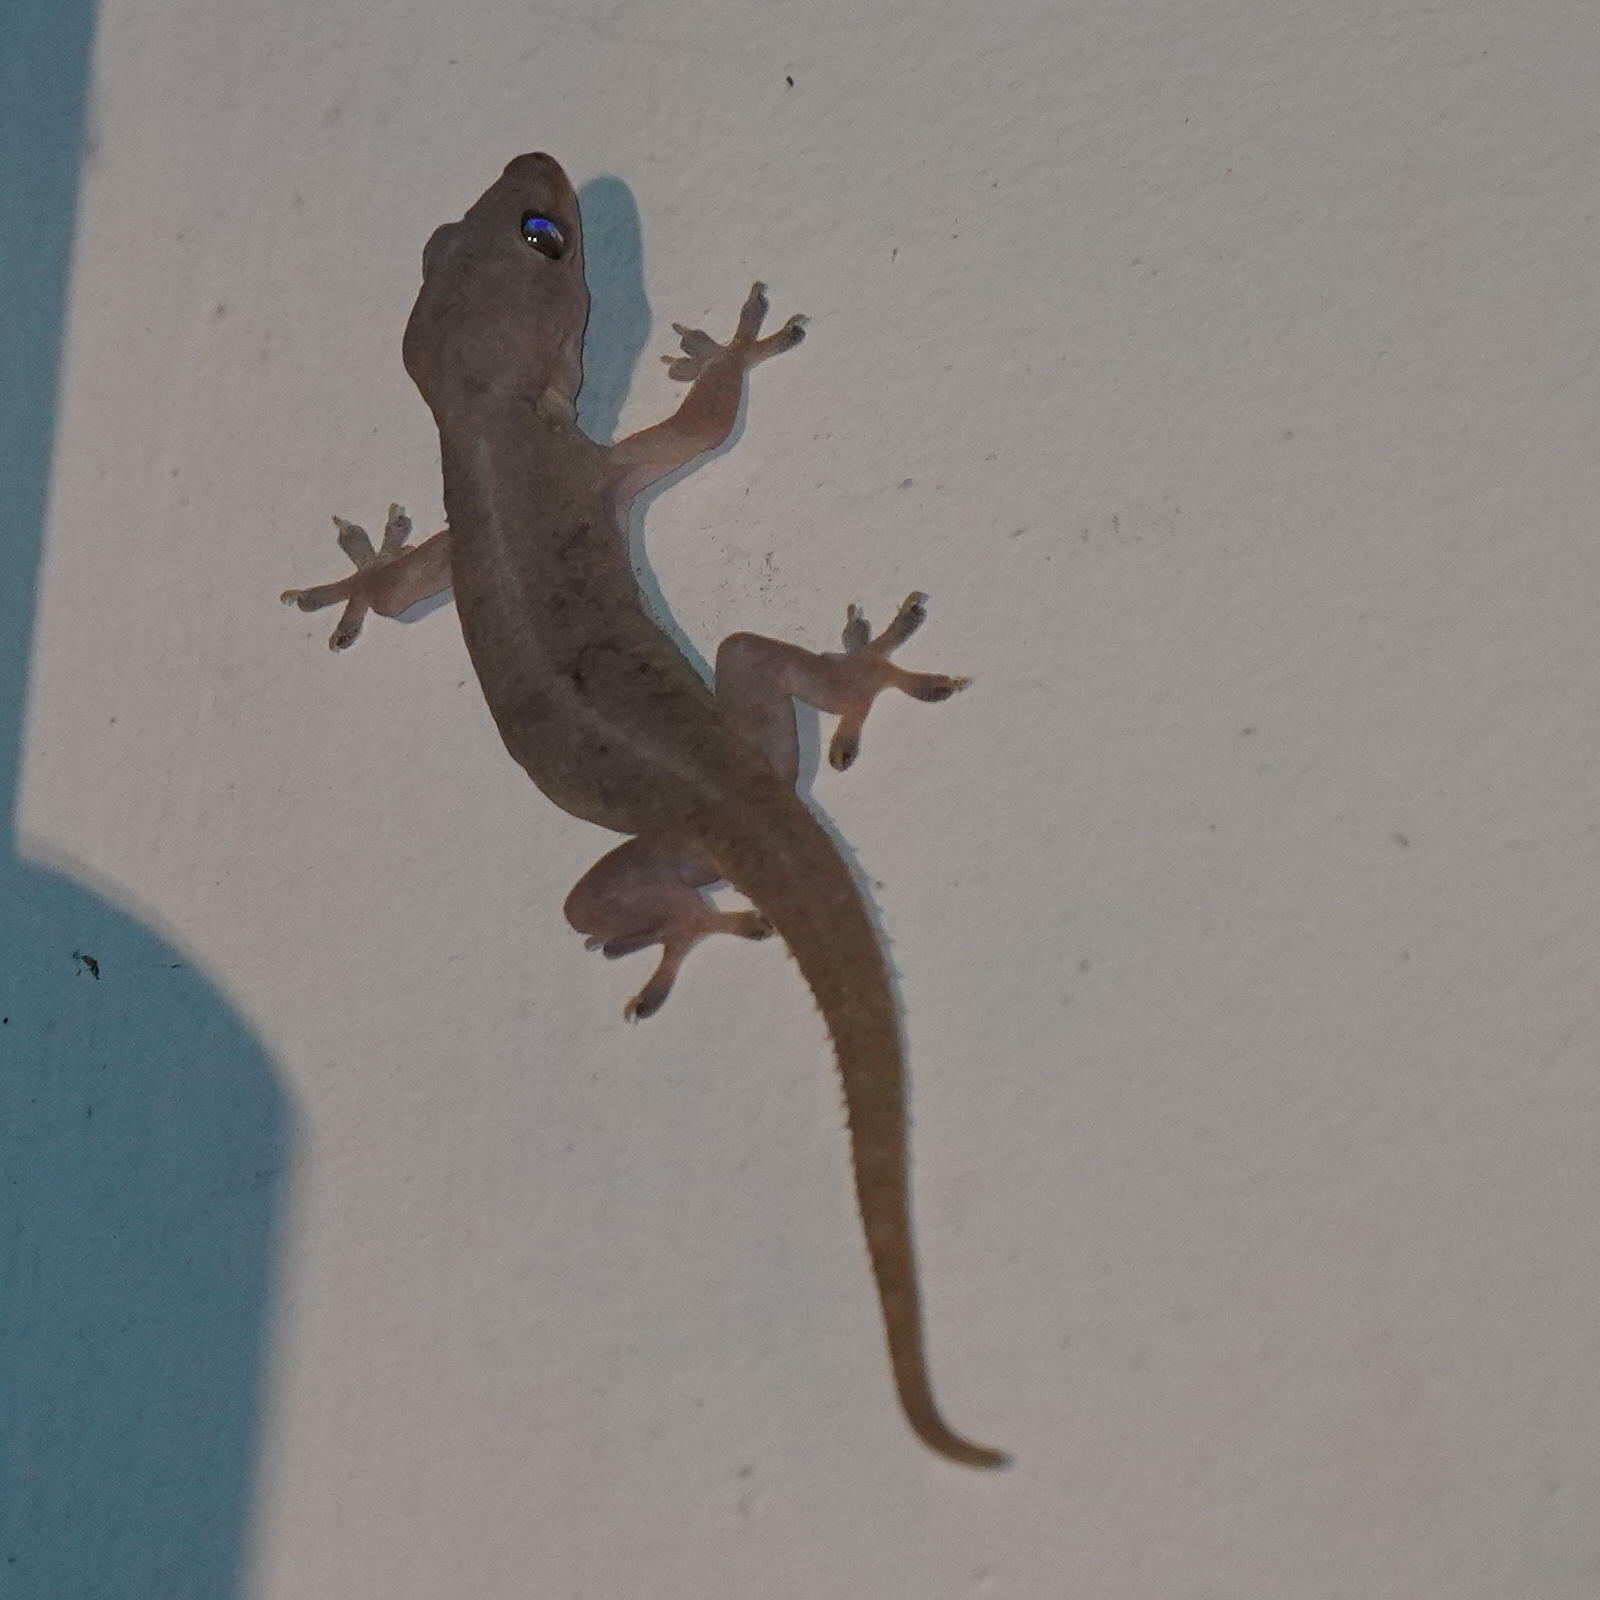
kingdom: Animalia
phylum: Chordata
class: Squamata
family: Gekkonidae
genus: Hemidactylus
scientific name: Hemidactylus frenatus
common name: Common house gecko
